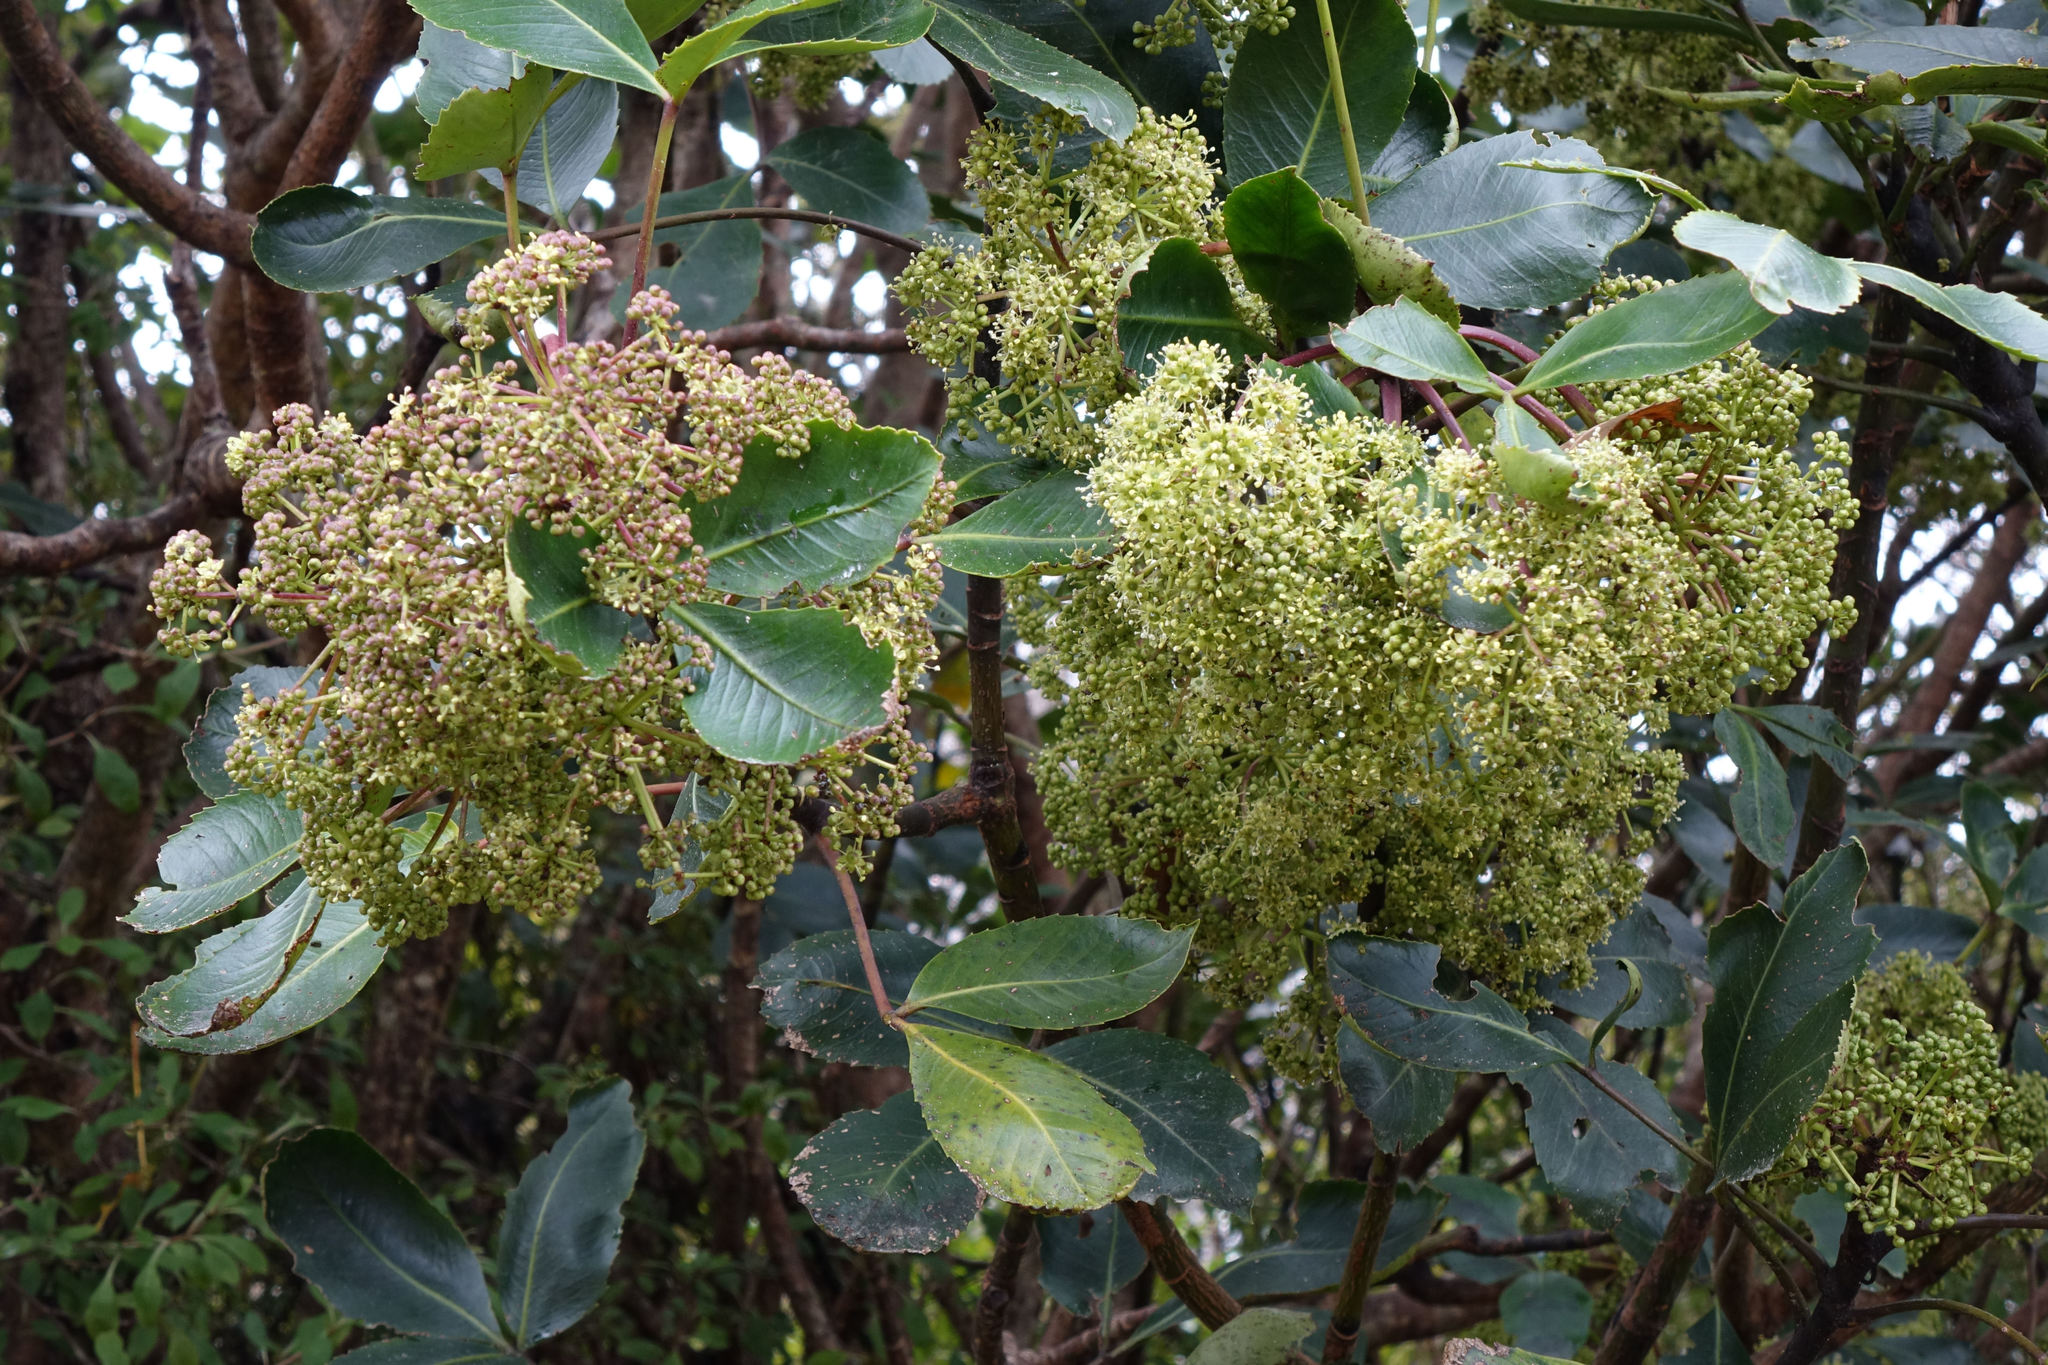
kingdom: Plantae
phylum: Tracheophyta
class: Magnoliopsida
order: Apiales
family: Araliaceae
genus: Neopanax
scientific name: Neopanax colensoi
